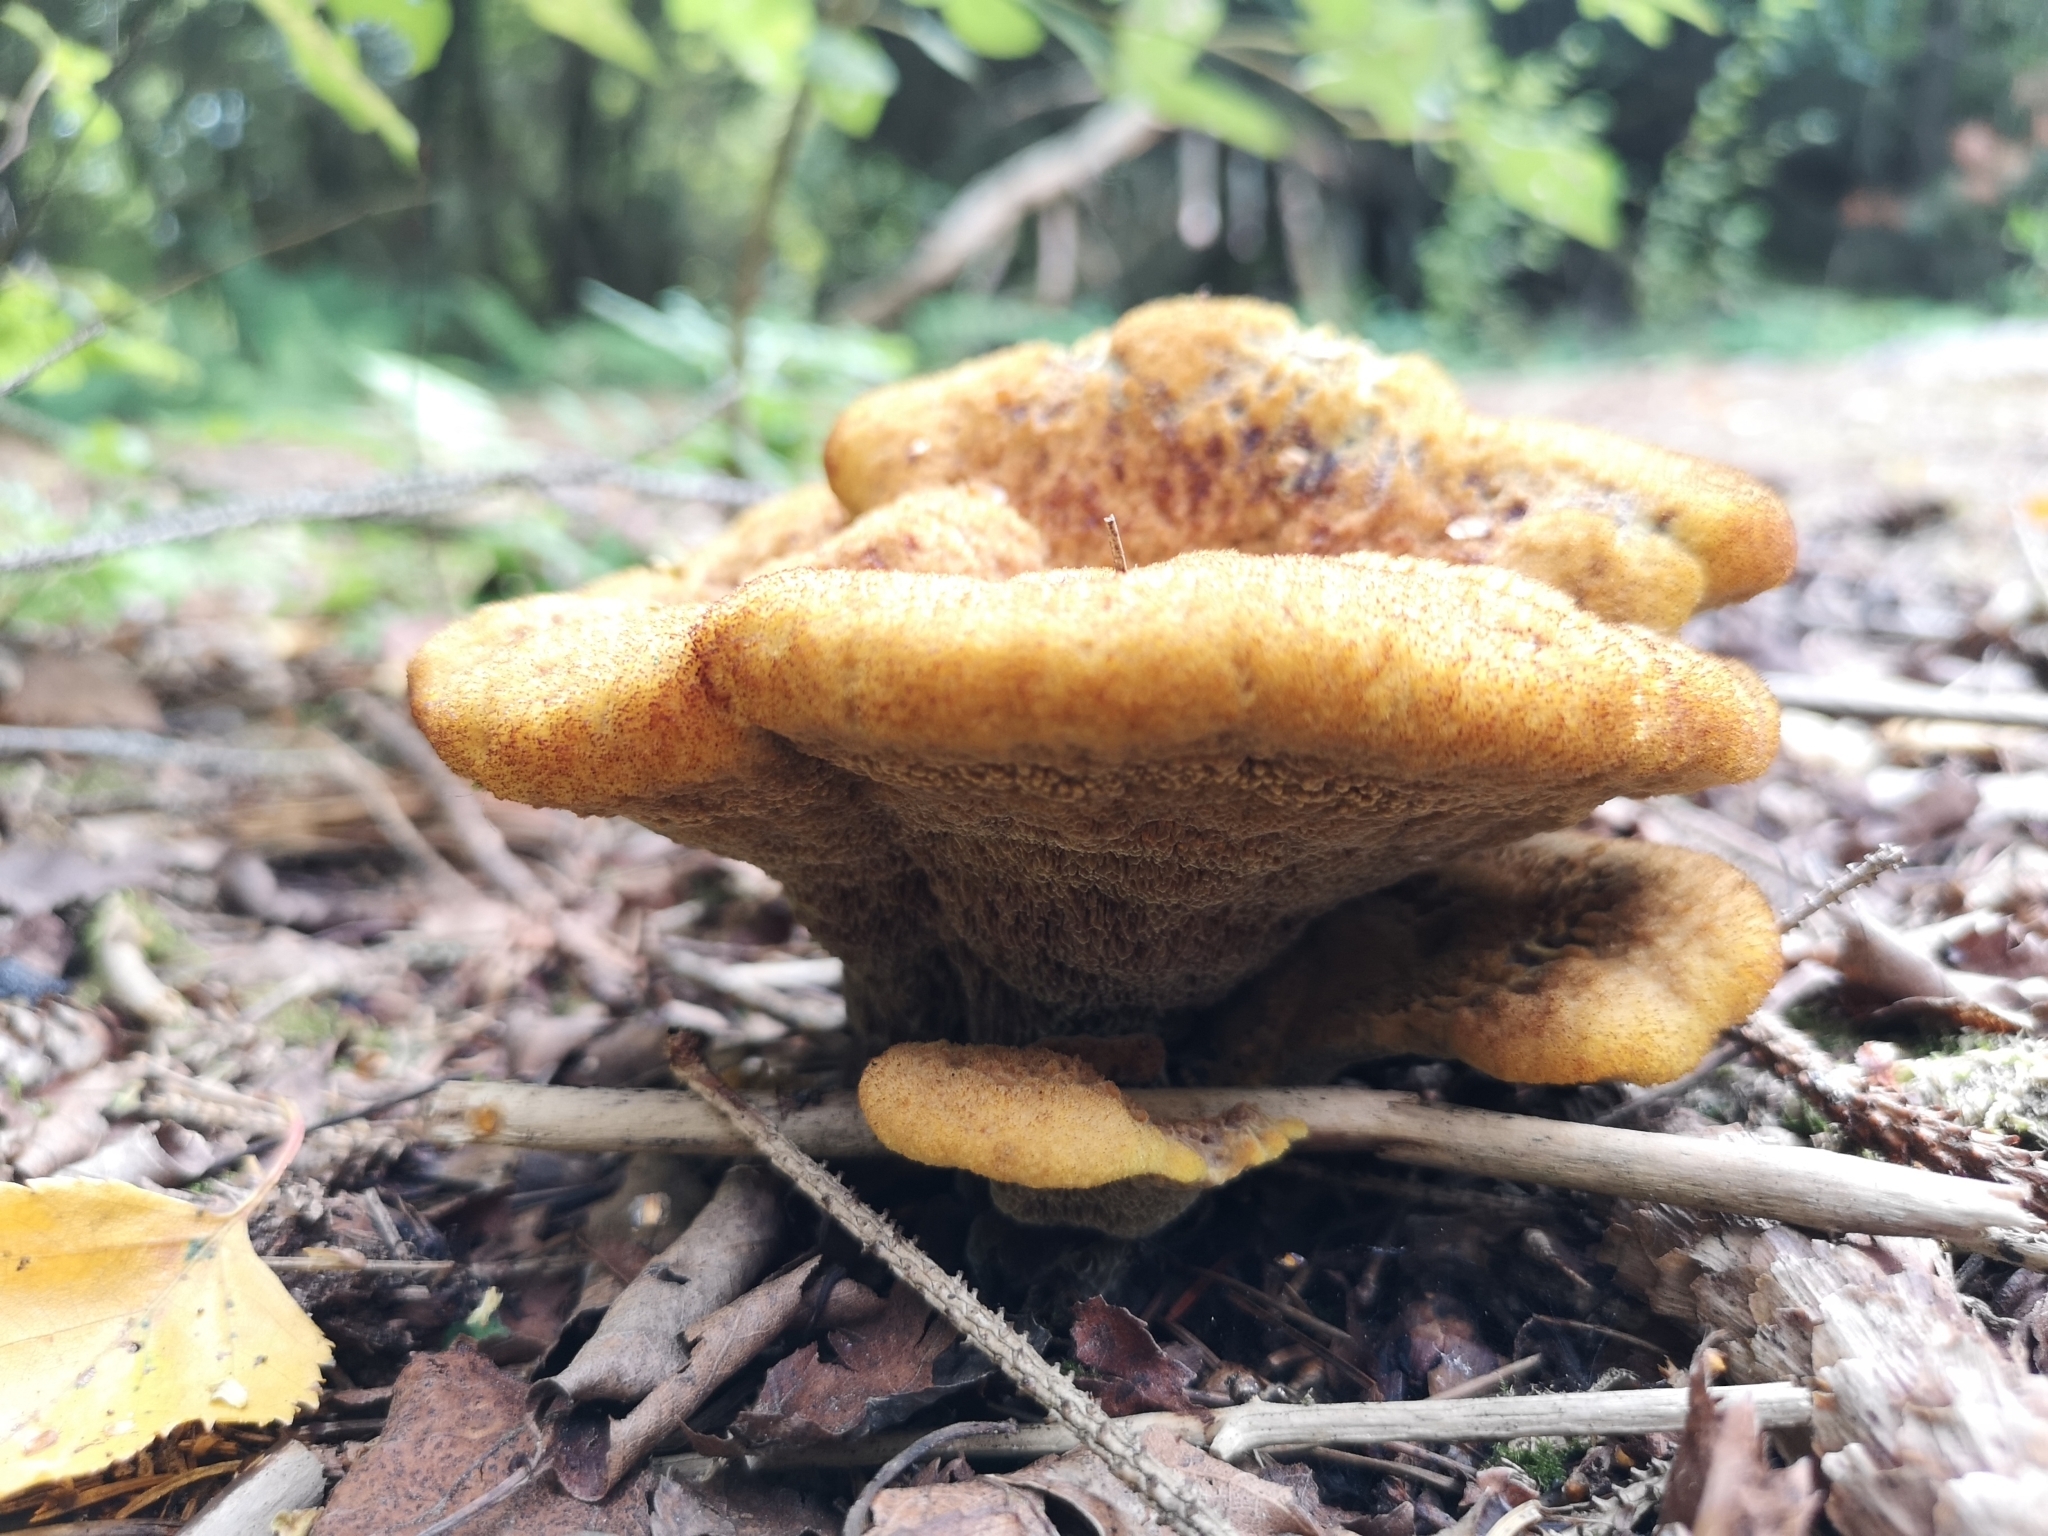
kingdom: Fungi
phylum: Basidiomycota
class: Agaricomycetes
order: Polyporales
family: Laetiporaceae
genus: Phaeolus
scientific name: Phaeolus schweinitzii
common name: Dyer's mazegill
